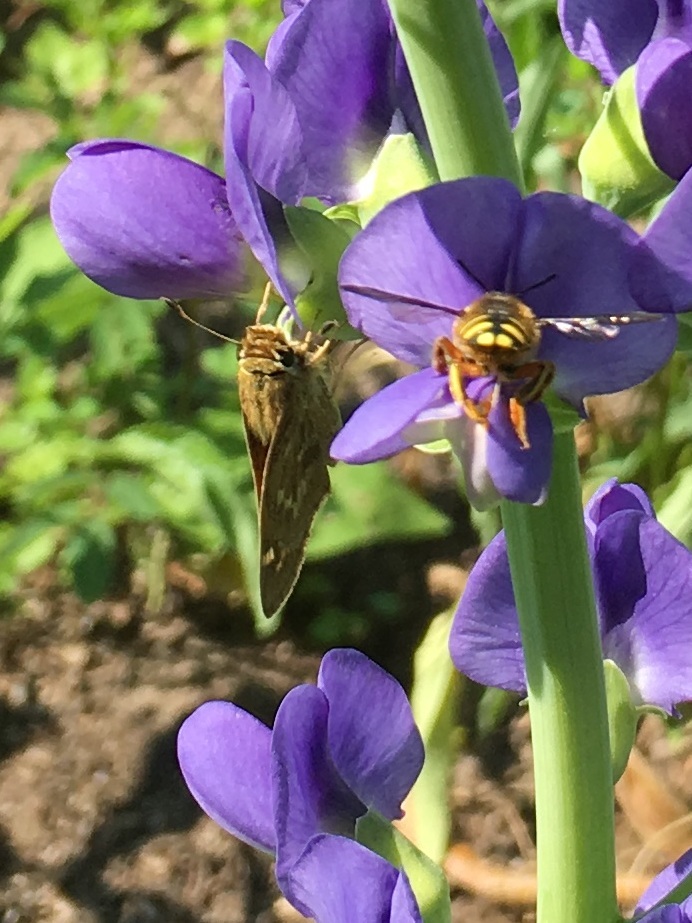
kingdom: Animalia
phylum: Arthropoda
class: Insecta
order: Lepidoptera
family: Hesperiidae
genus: Atalopedes
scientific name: Atalopedes
